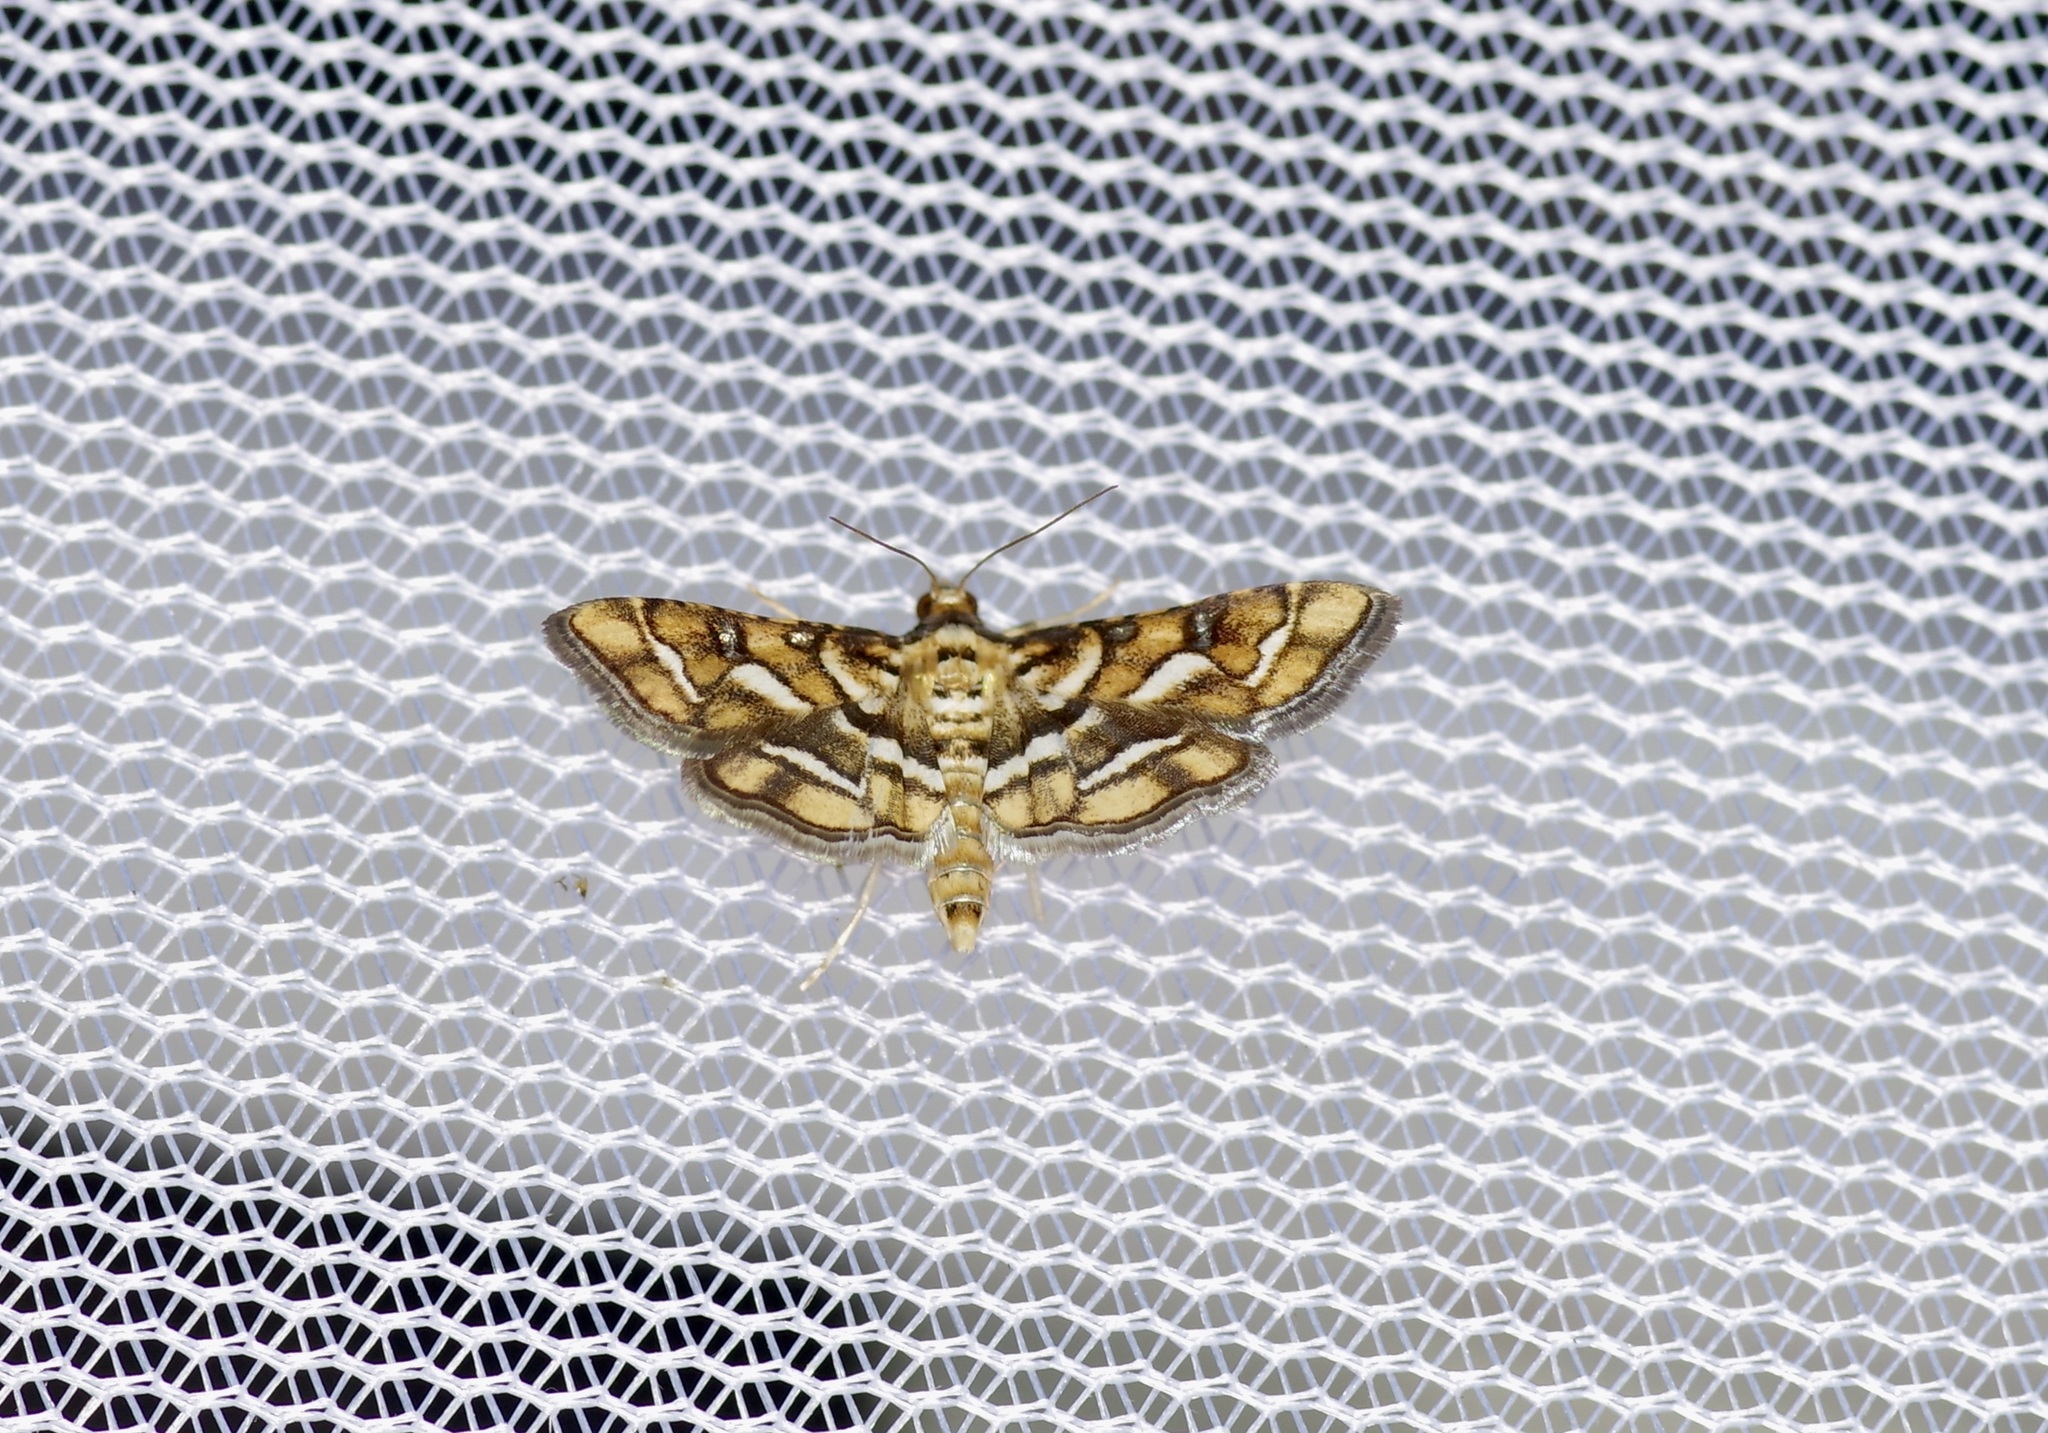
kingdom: Animalia
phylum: Arthropoda
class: Insecta
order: Lepidoptera
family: Crambidae
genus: Hileithia
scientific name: Hileithia magualis
